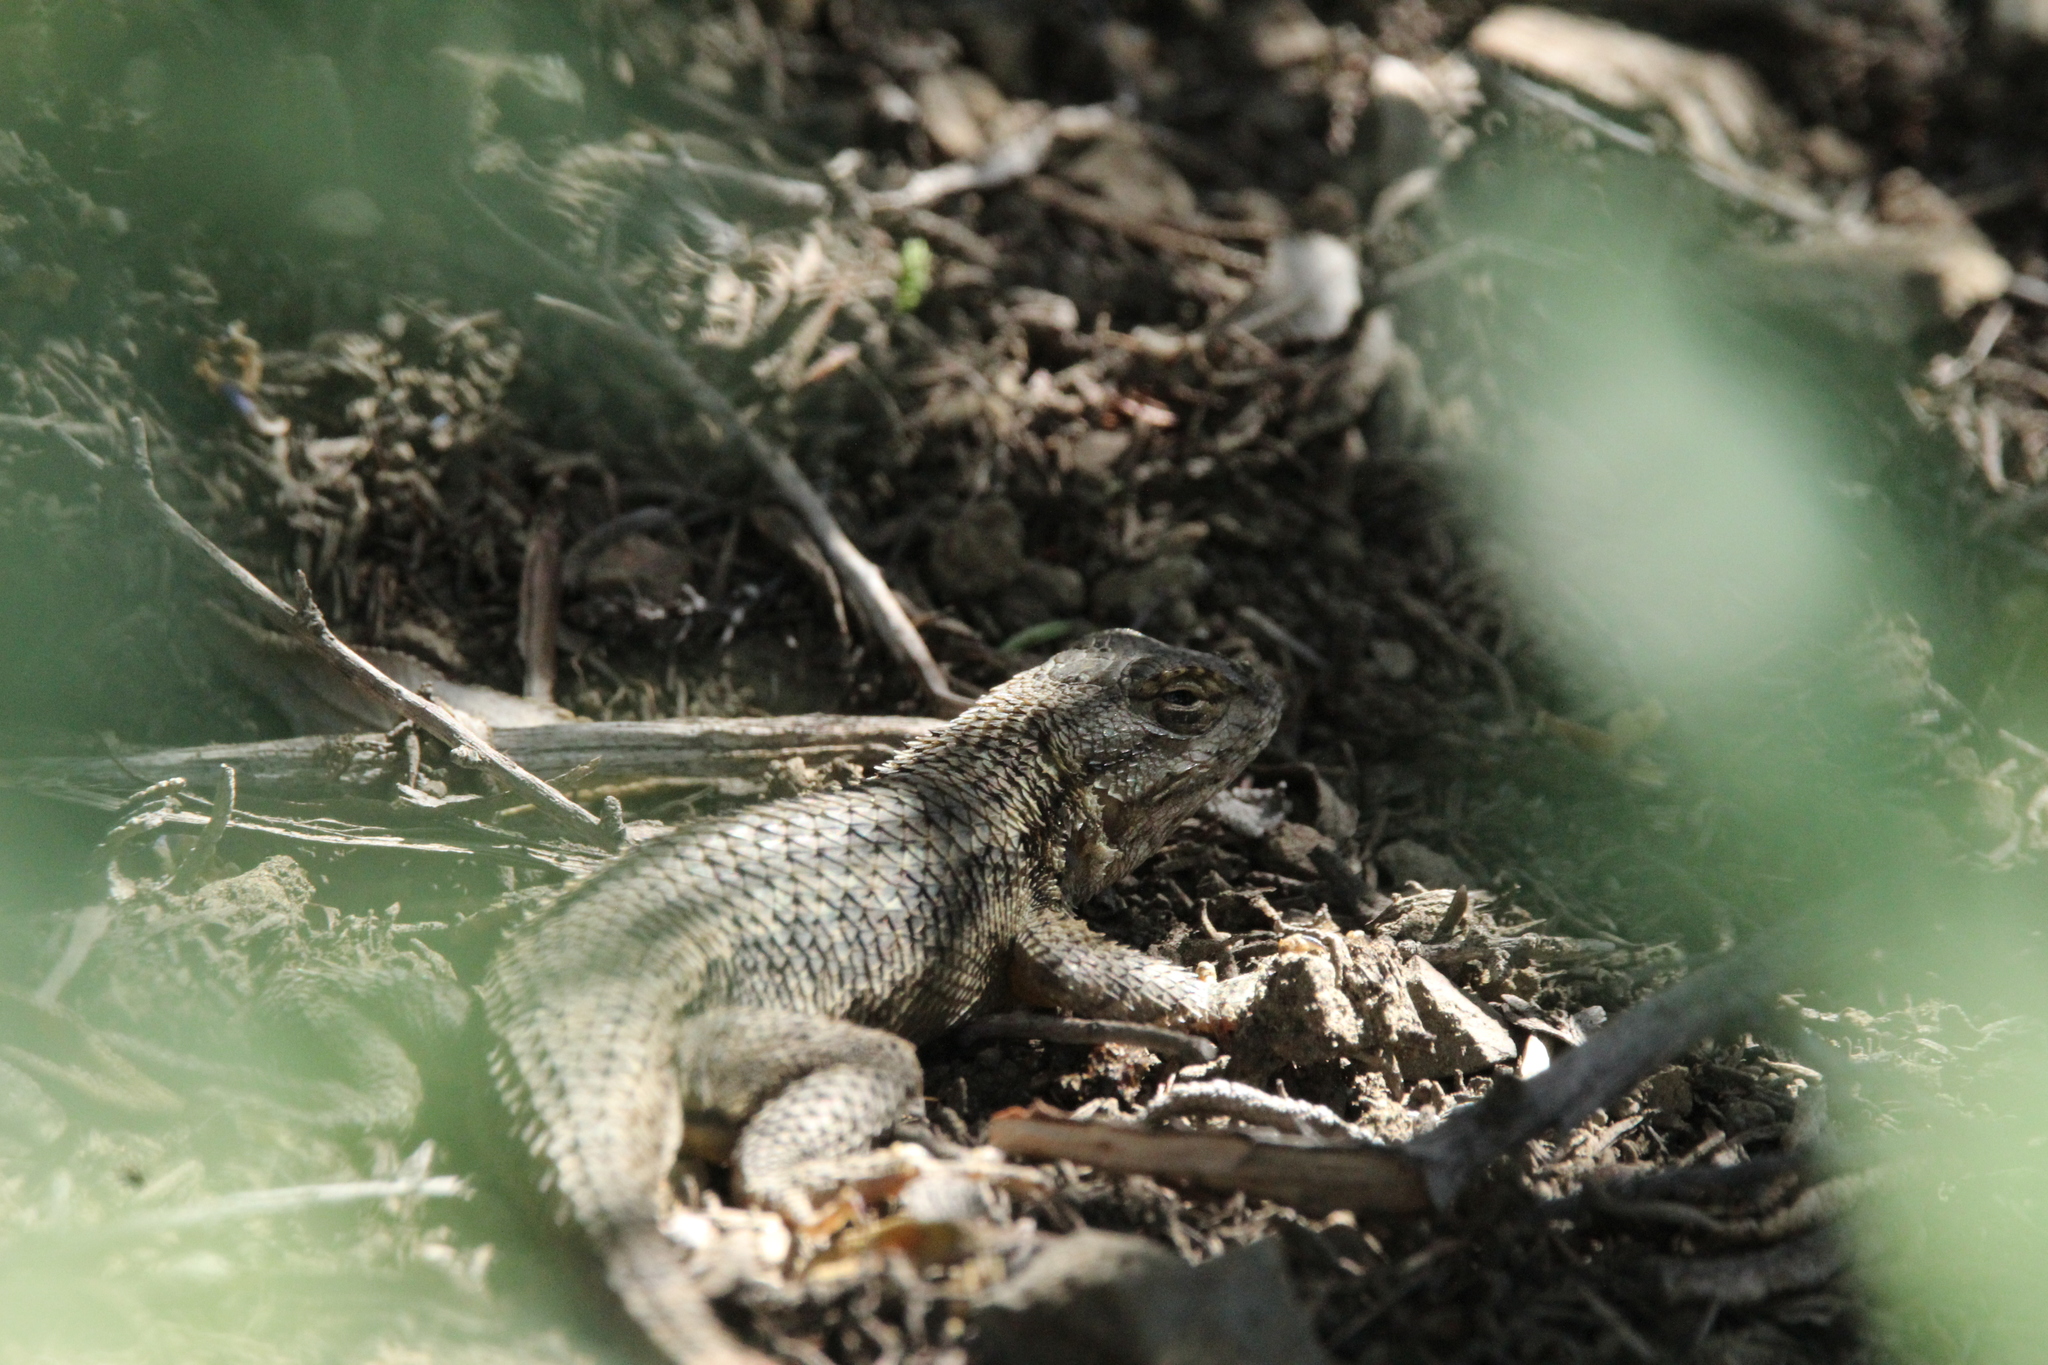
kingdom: Animalia
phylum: Chordata
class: Squamata
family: Phrynosomatidae
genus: Sceloporus
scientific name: Sceloporus occidentalis
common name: Western fence lizard
